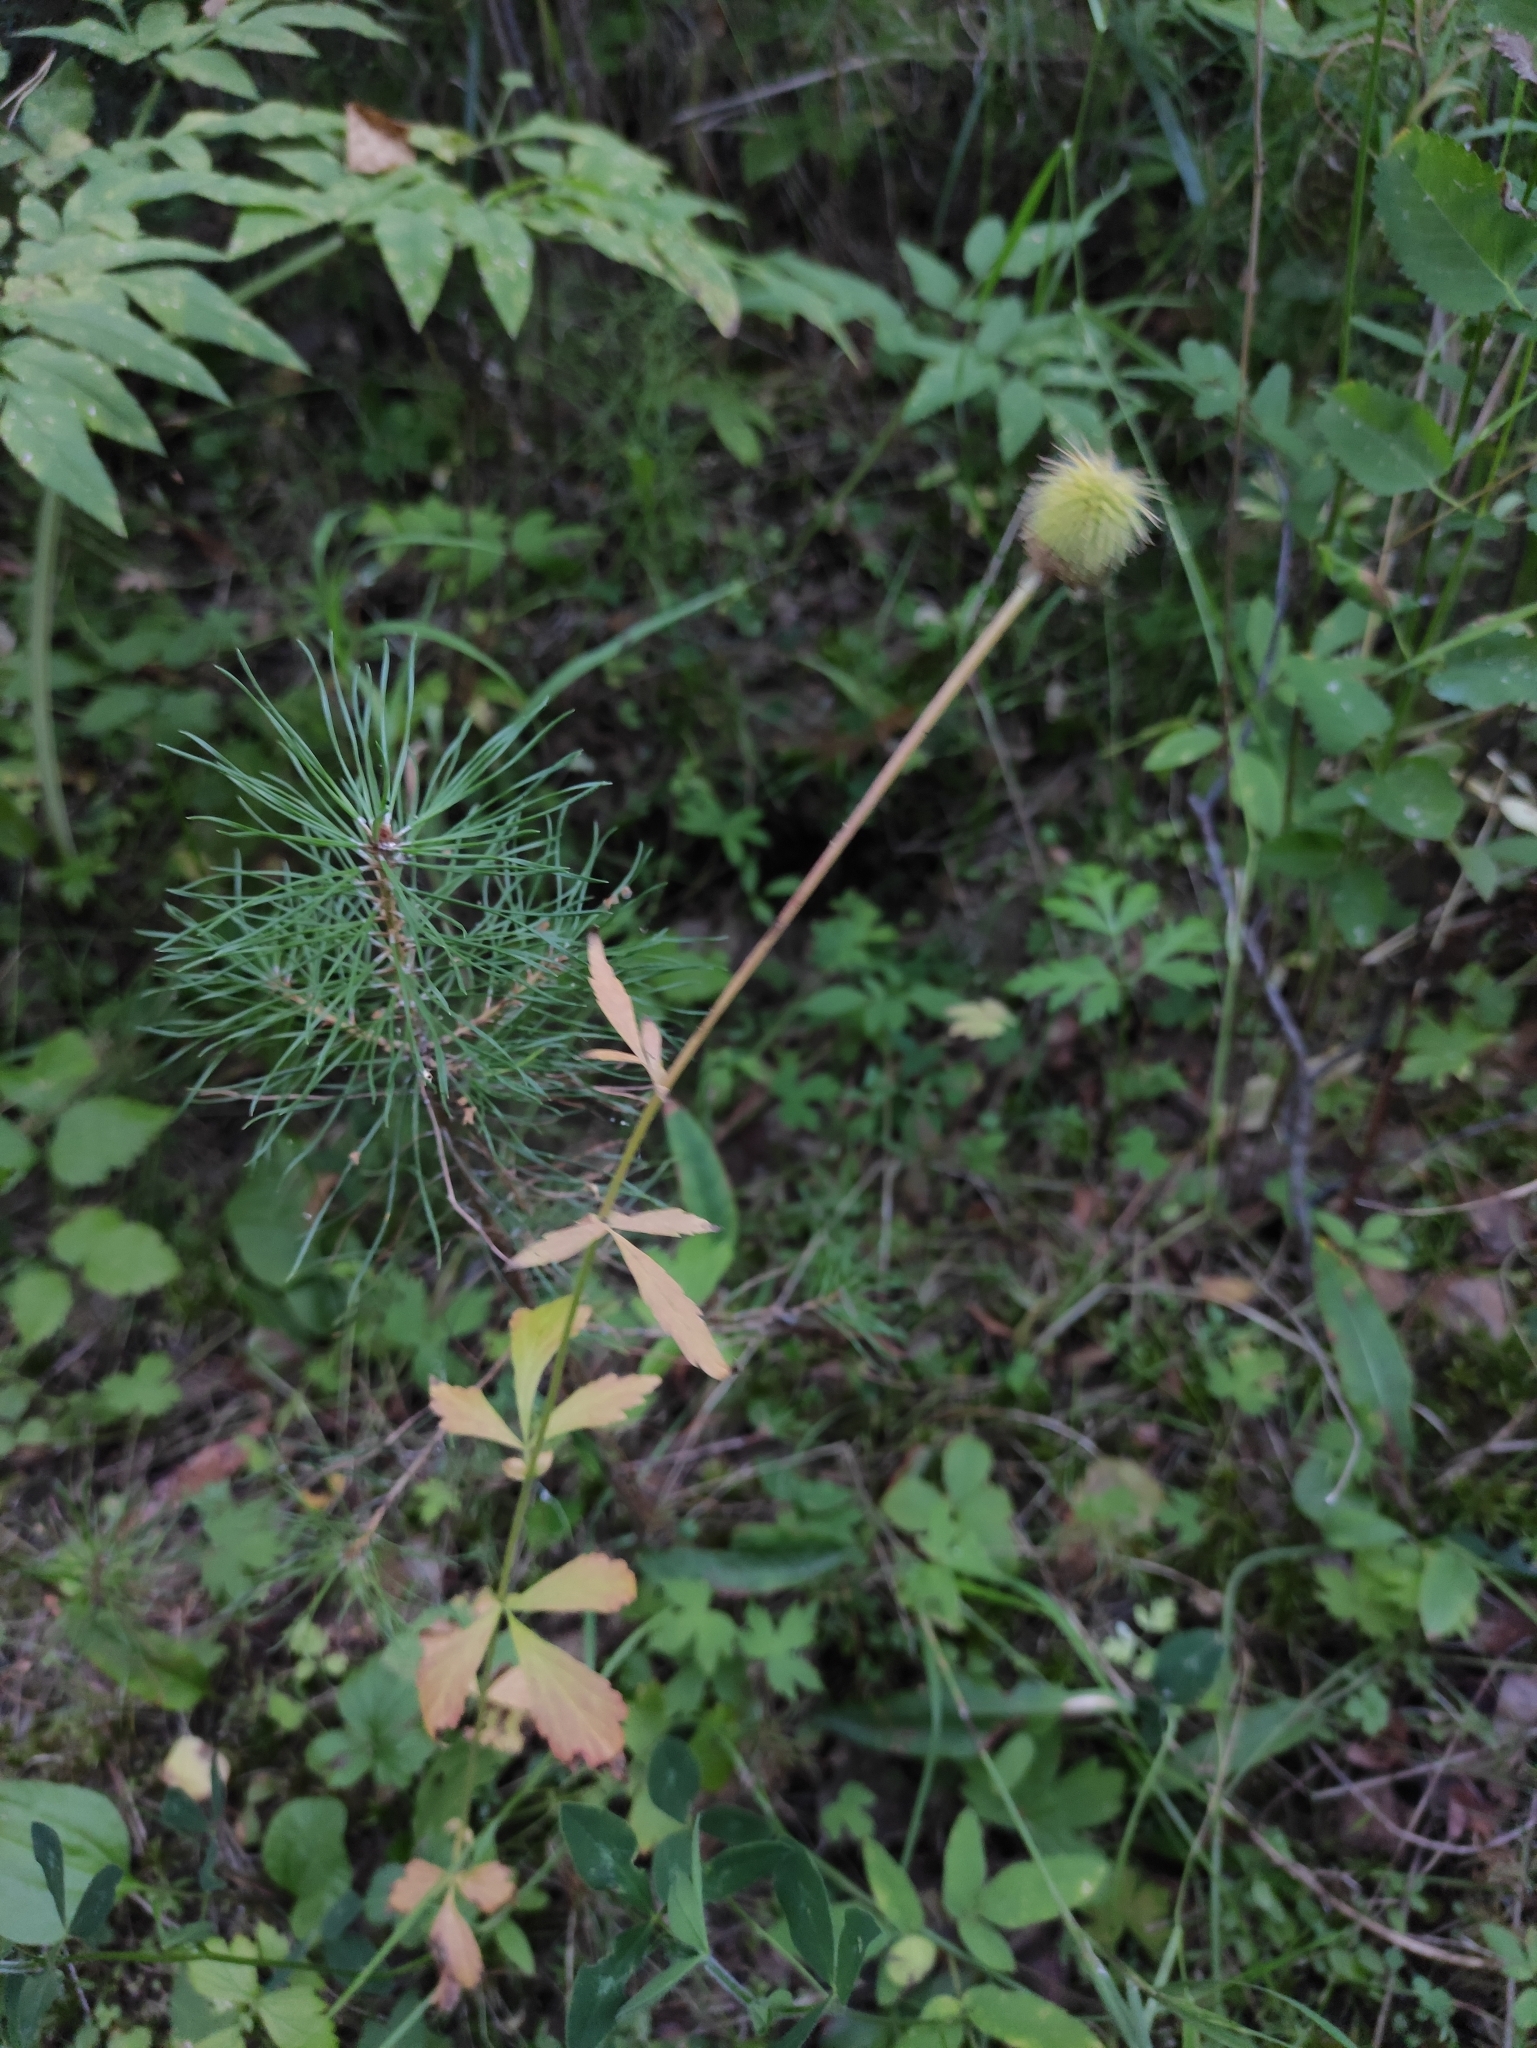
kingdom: Plantae
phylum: Tracheophyta
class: Magnoliopsida
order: Rosales
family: Rosaceae
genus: Geum
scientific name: Geum aleppicum
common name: Yellow avens
